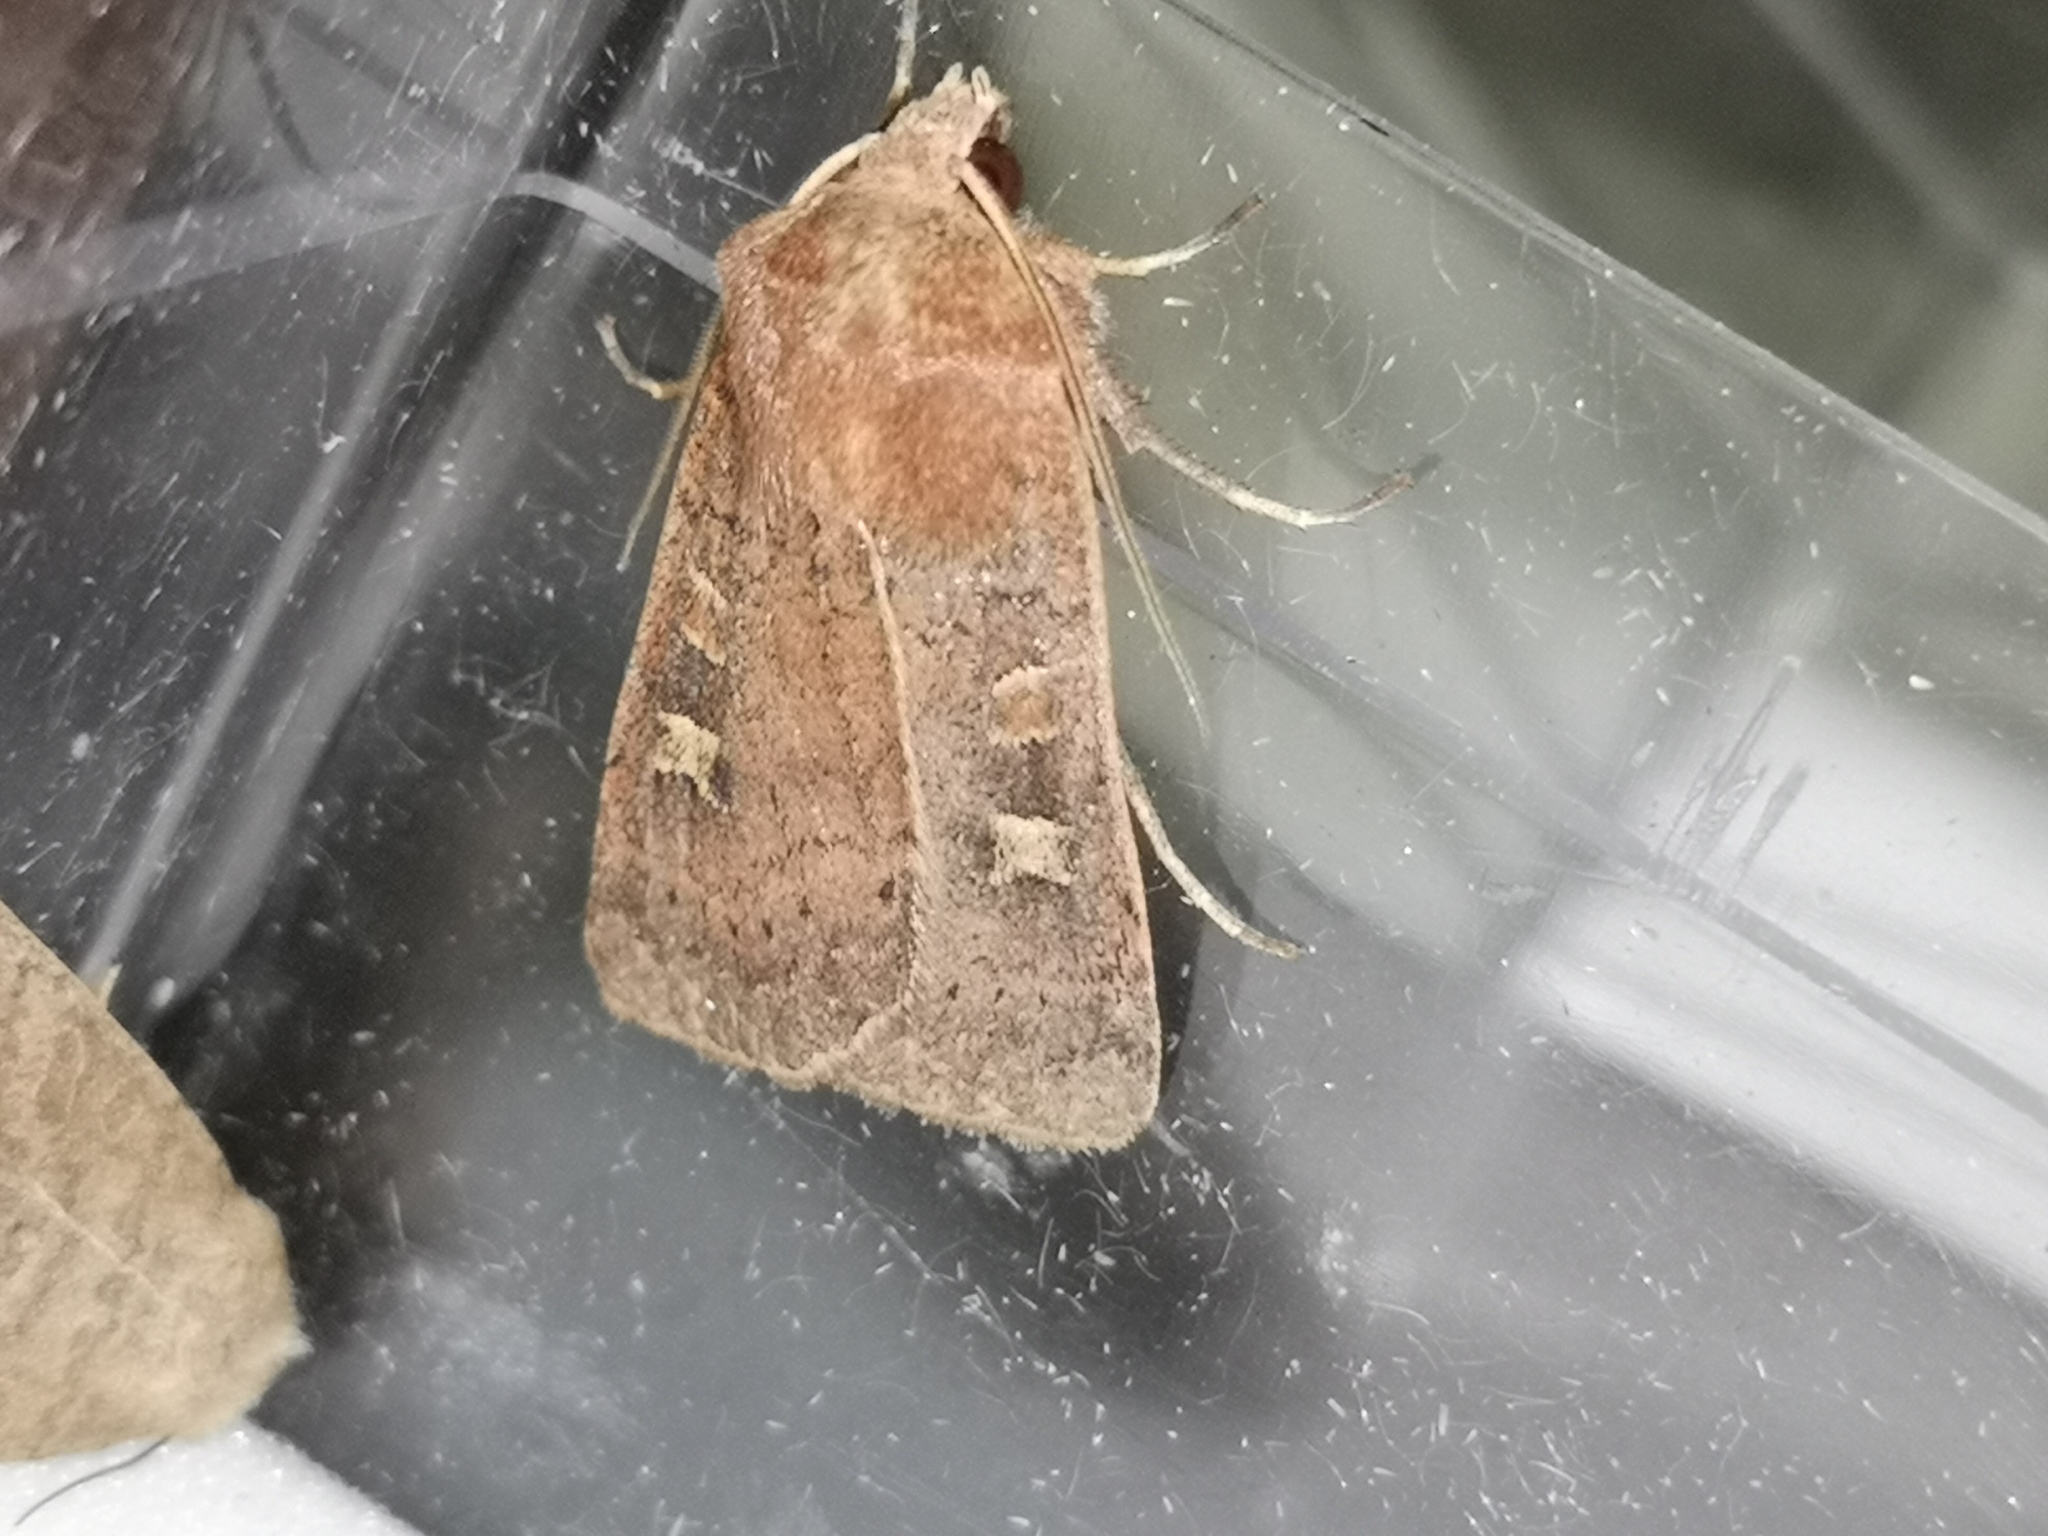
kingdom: Animalia
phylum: Arthropoda
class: Insecta
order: Lepidoptera
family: Noctuidae
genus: Xestia
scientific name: Xestia xanthographa
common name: Square-spot rustic
